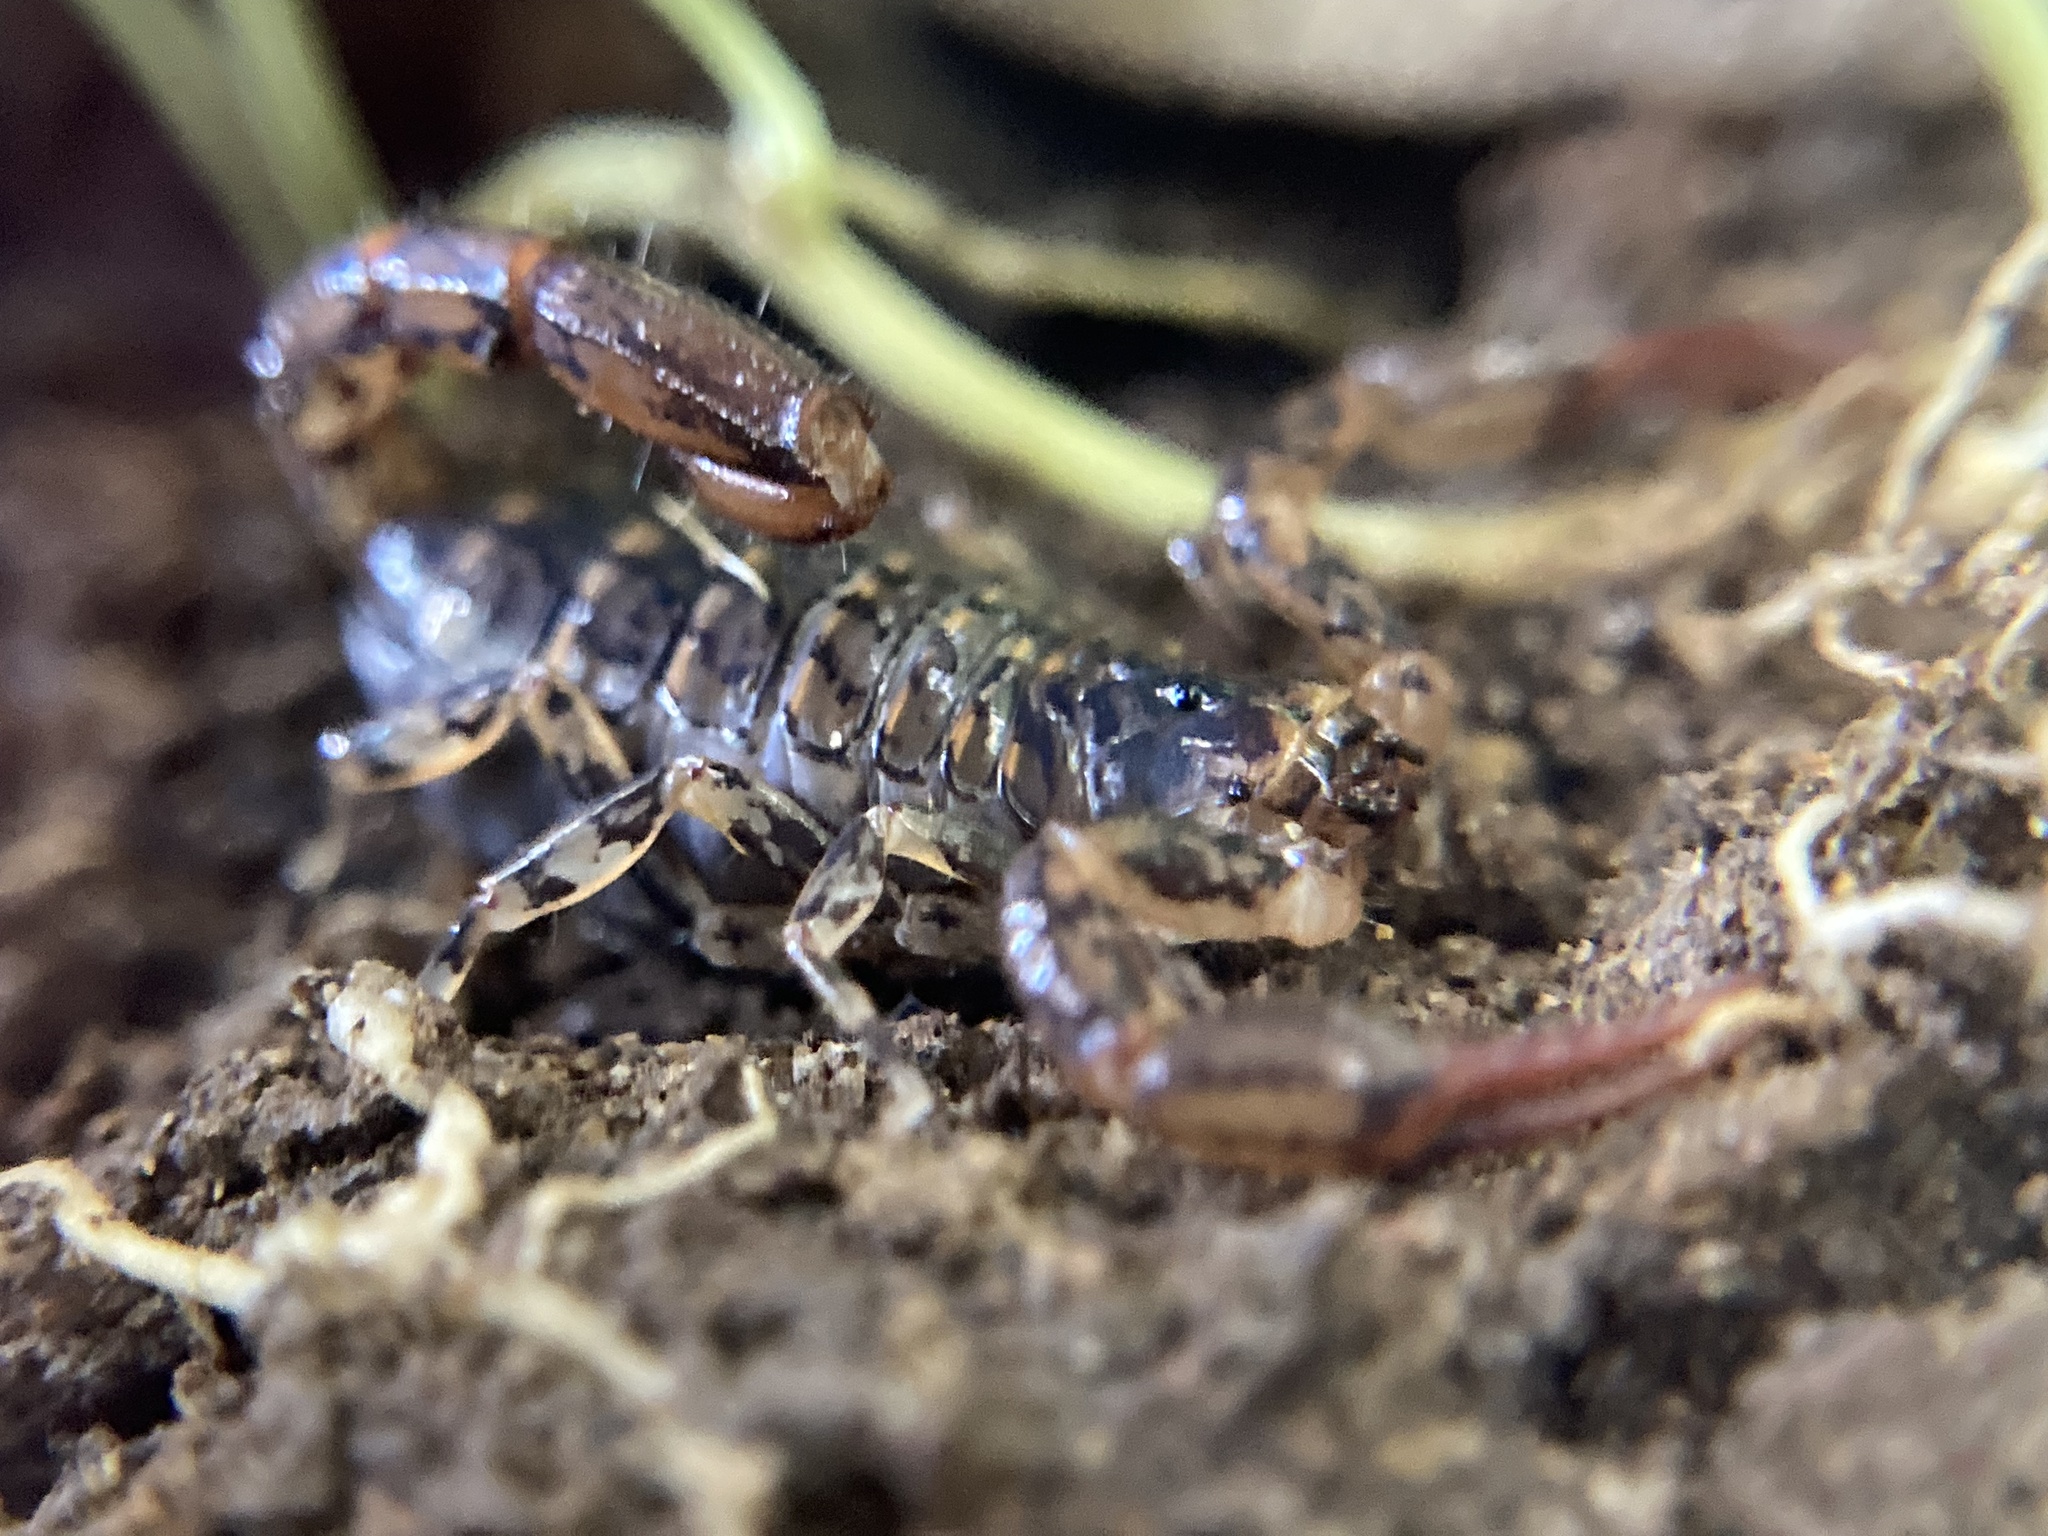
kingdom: Animalia
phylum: Arthropoda
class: Arachnida
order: Scorpiones
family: Bothriuridae
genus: Cercophonius
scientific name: Cercophonius squama
